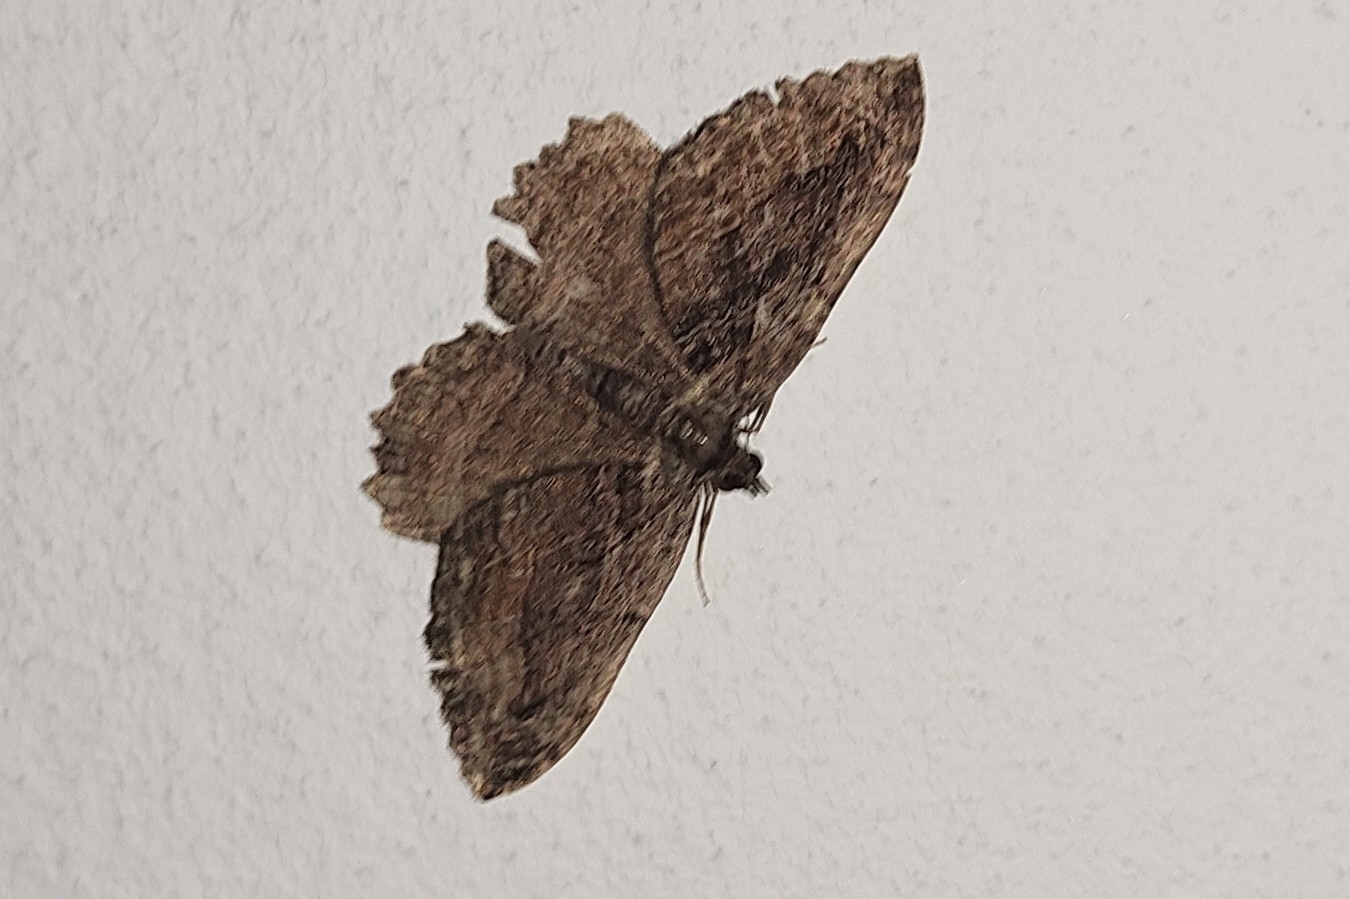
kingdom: Animalia
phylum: Arthropoda
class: Insecta
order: Lepidoptera
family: Geometridae
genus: Philereme
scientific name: Philereme transversata
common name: Dark umber
